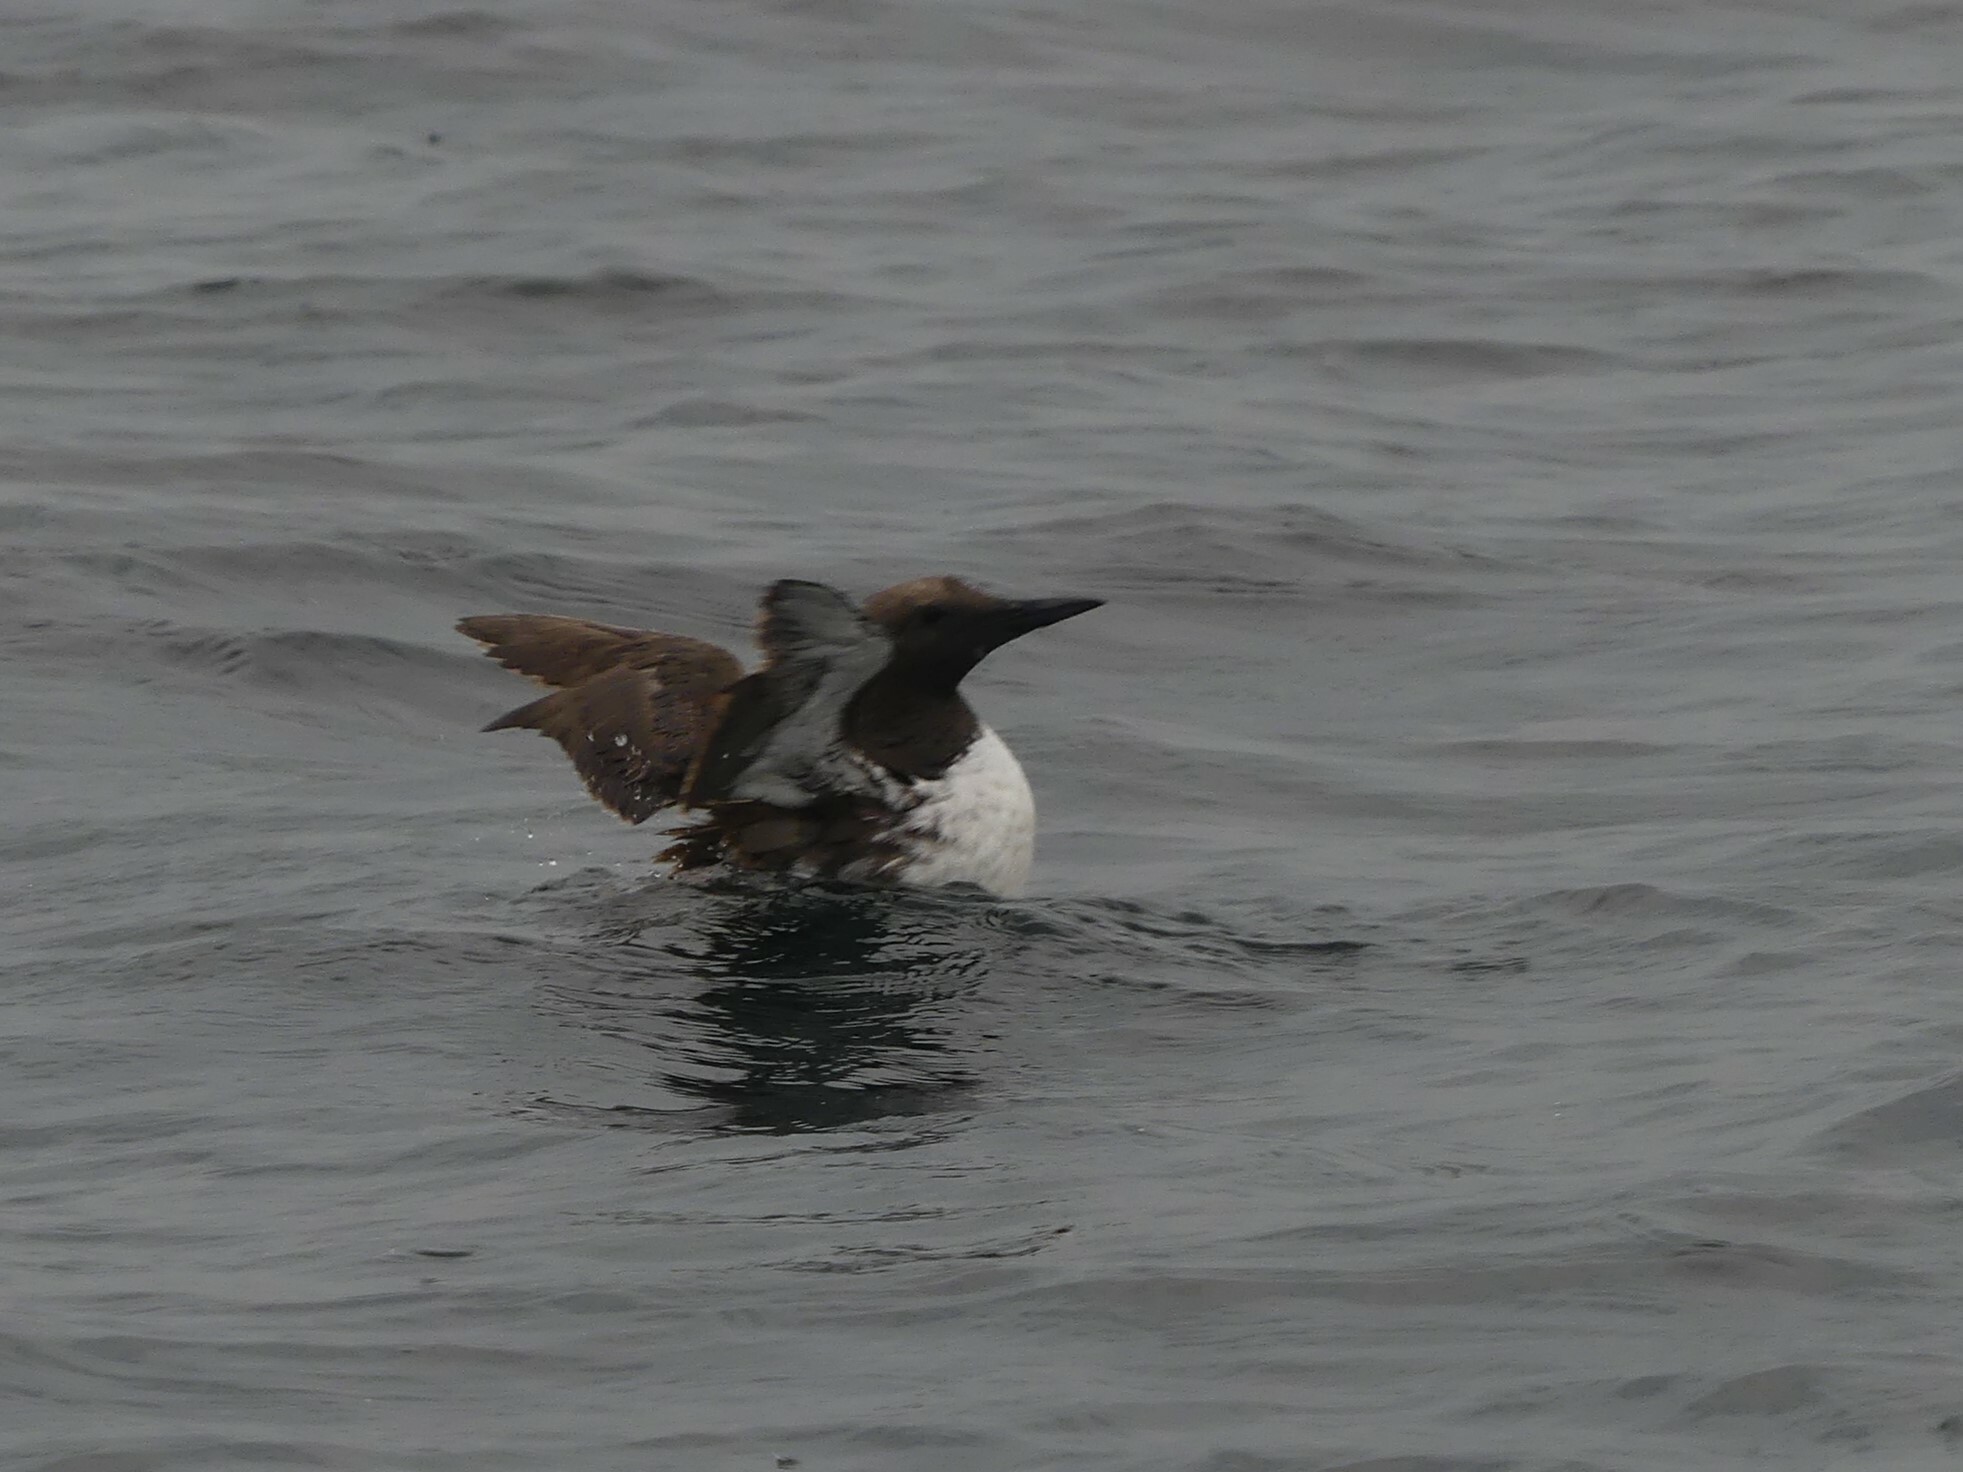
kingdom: Animalia
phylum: Chordata
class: Aves
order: Charadriiformes
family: Alcidae
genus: Uria
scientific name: Uria aalge
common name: Common murre
